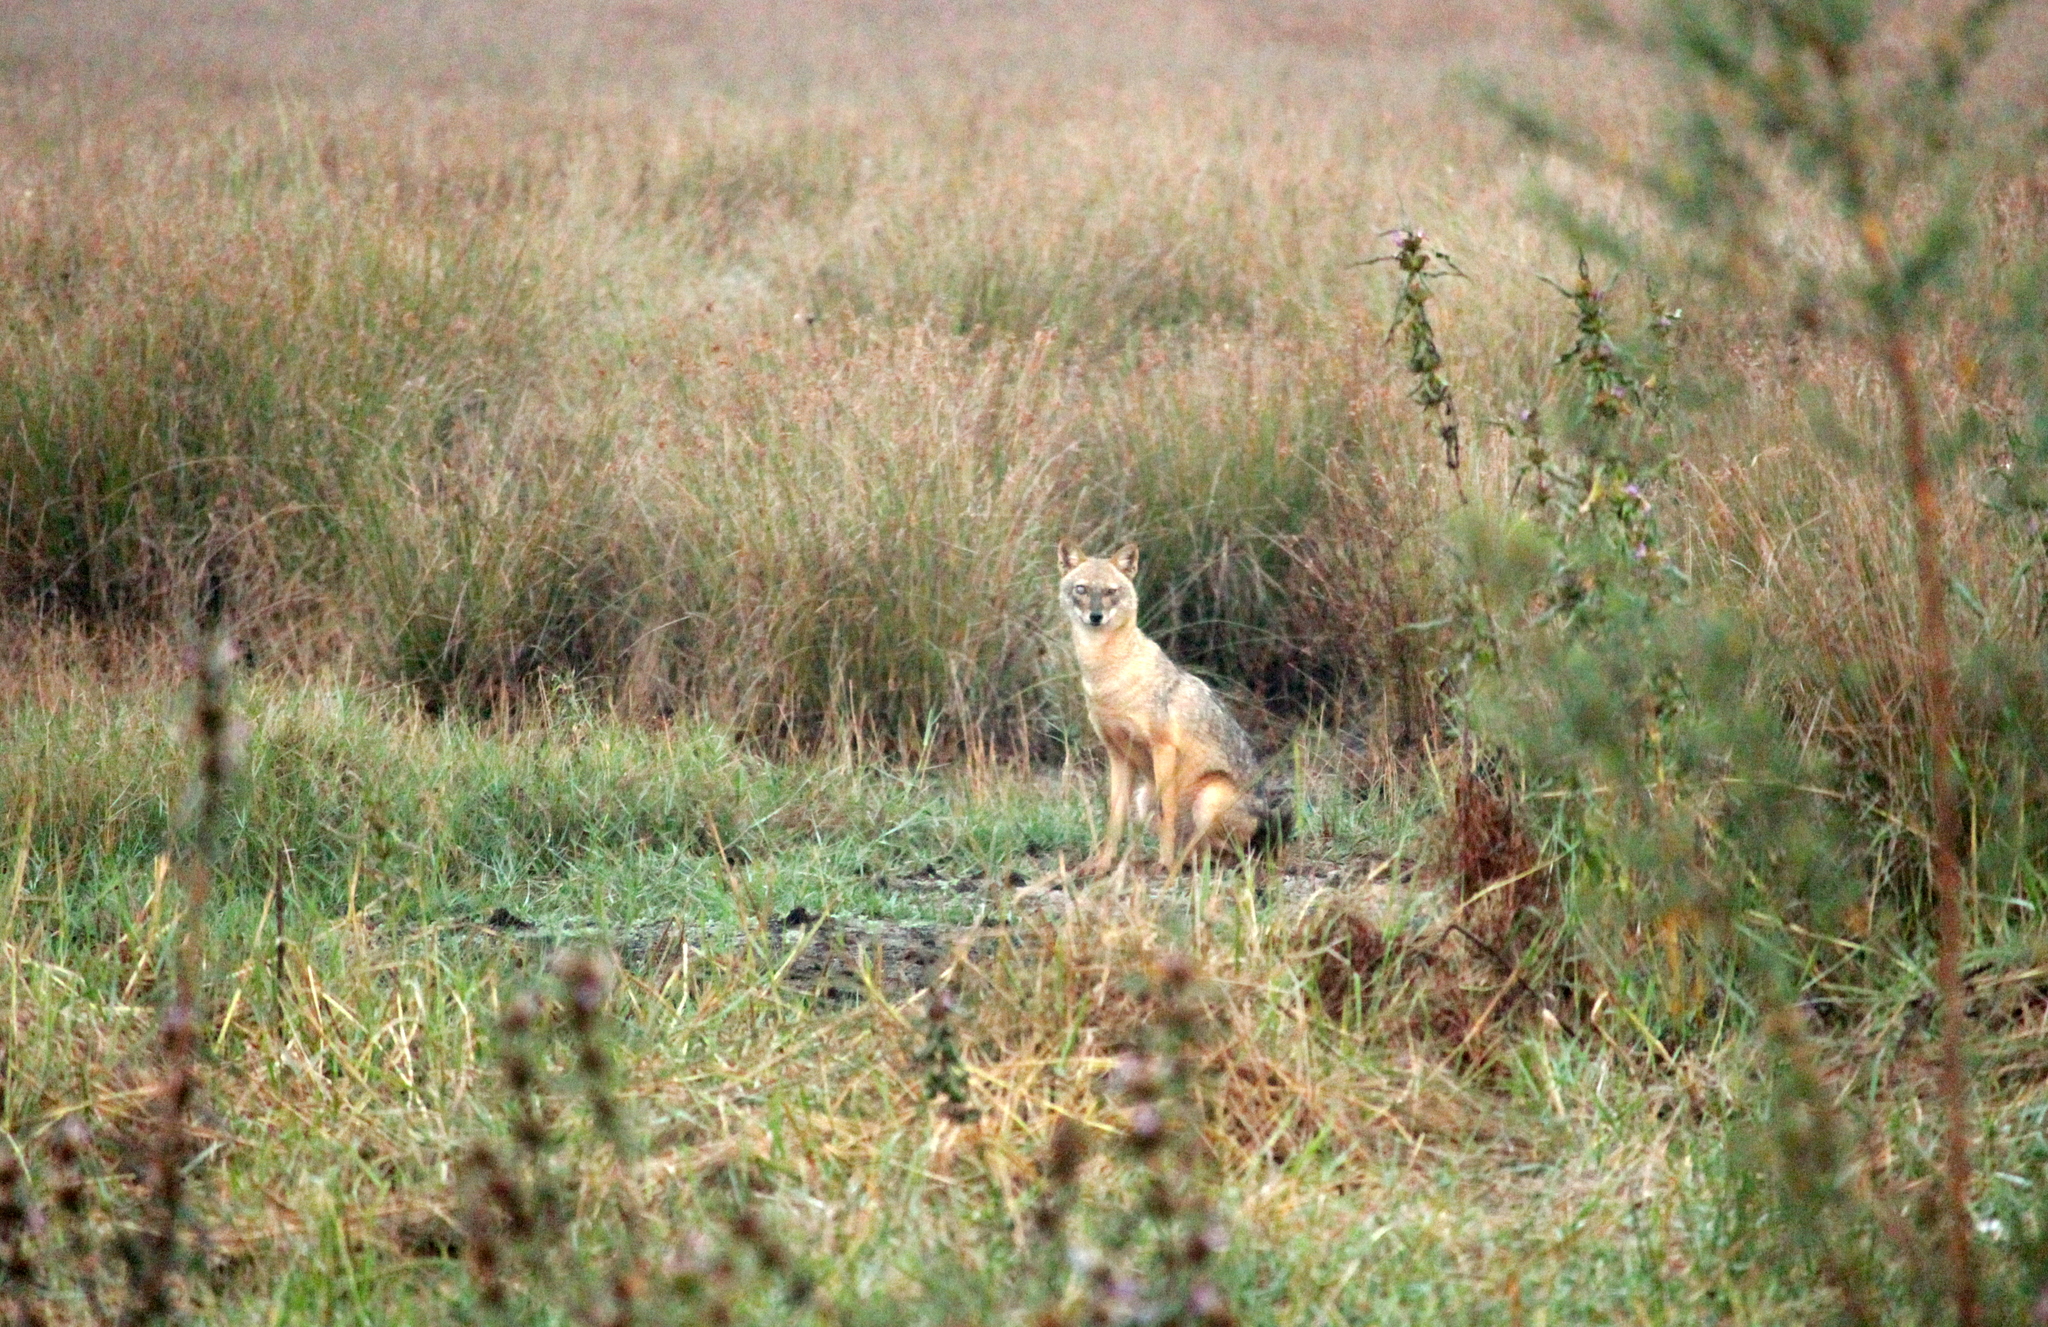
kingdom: Animalia
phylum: Chordata
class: Mammalia
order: Carnivora
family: Canidae
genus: Canis
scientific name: Canis aureus
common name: Golden jackal
